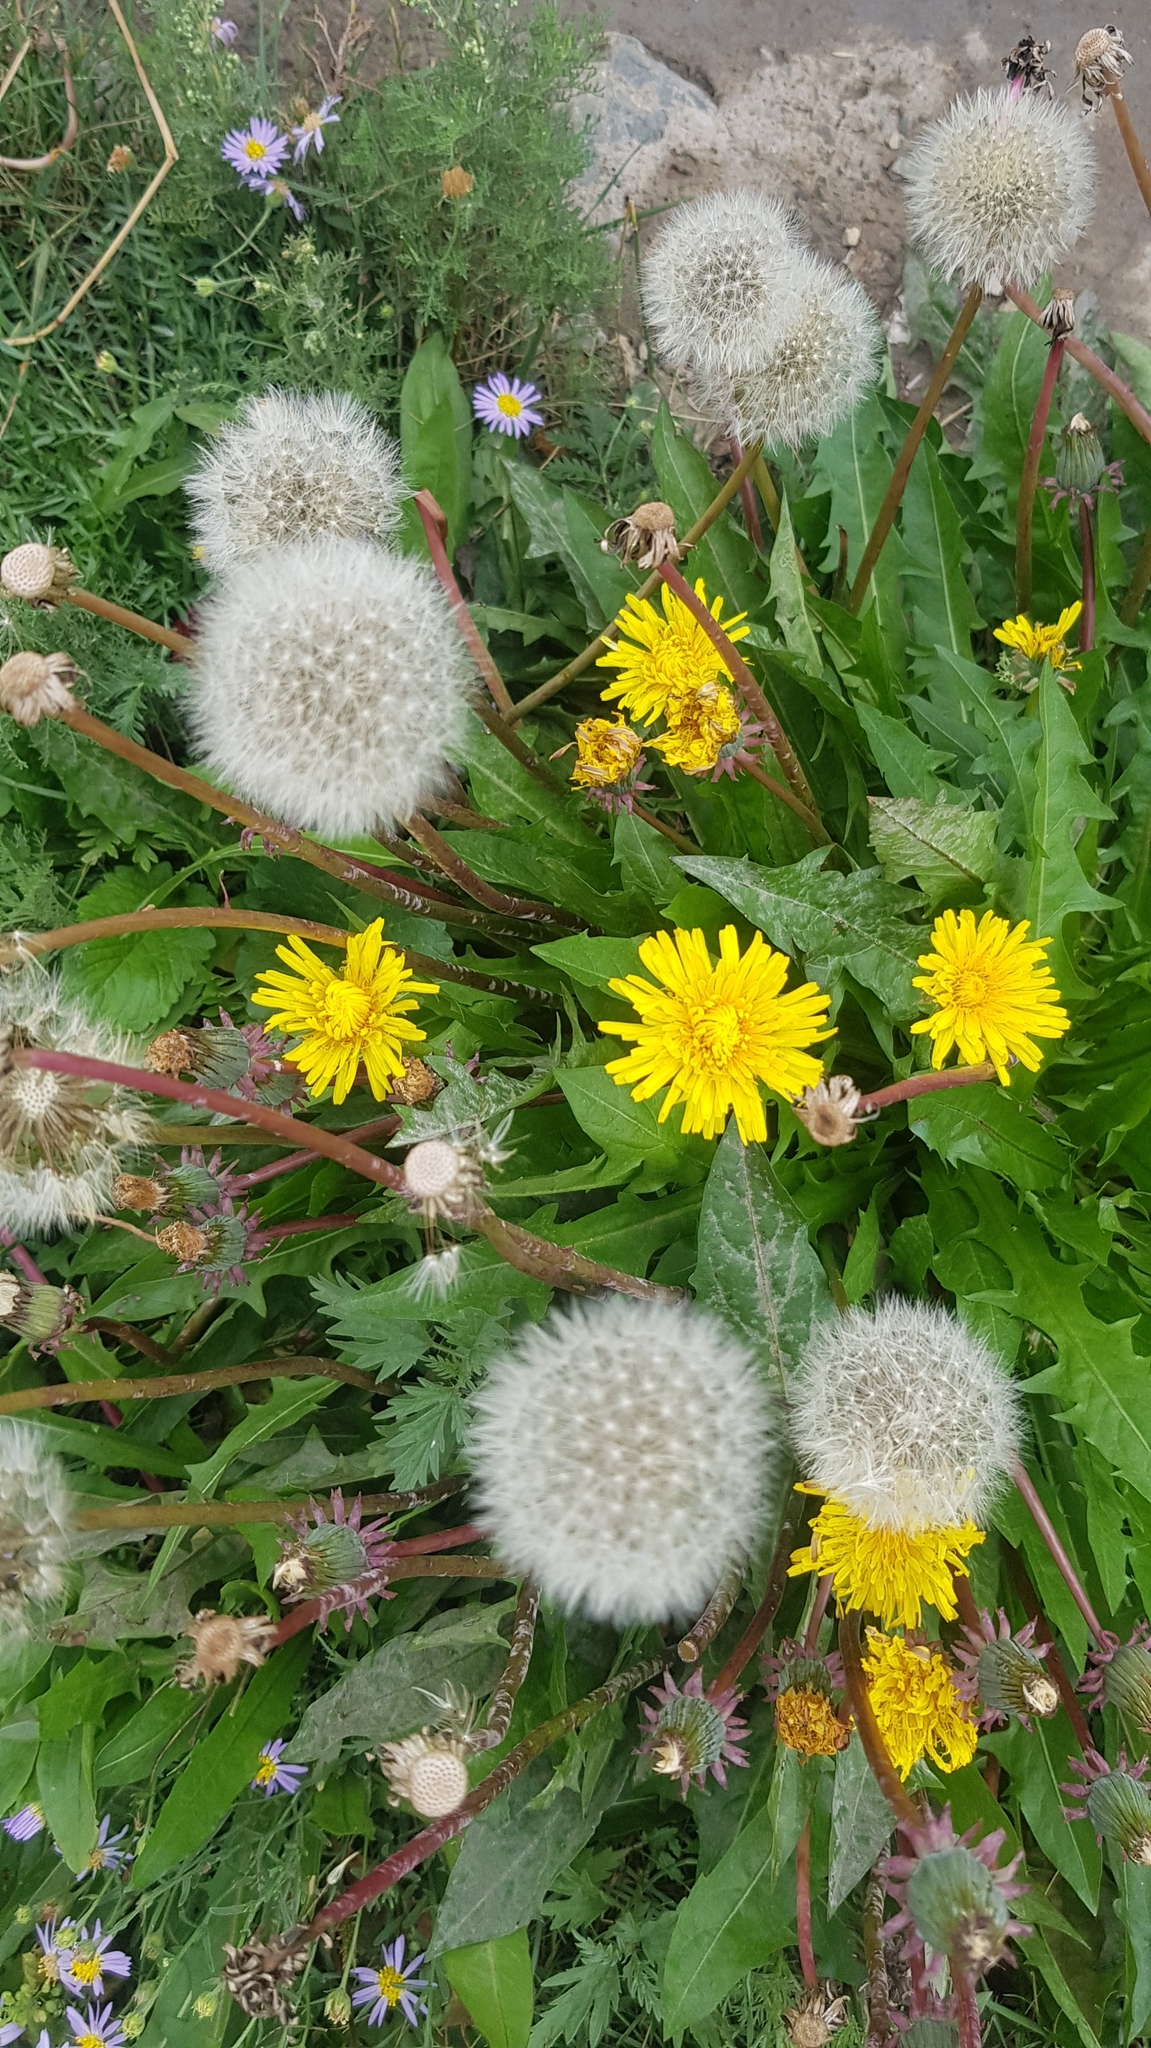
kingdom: Plantae
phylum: Tracheophyta
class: Magnoliopsida
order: Asterales
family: Asteraceae
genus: Taraxacum
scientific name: Taraxacum officinale
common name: Common dandelion
